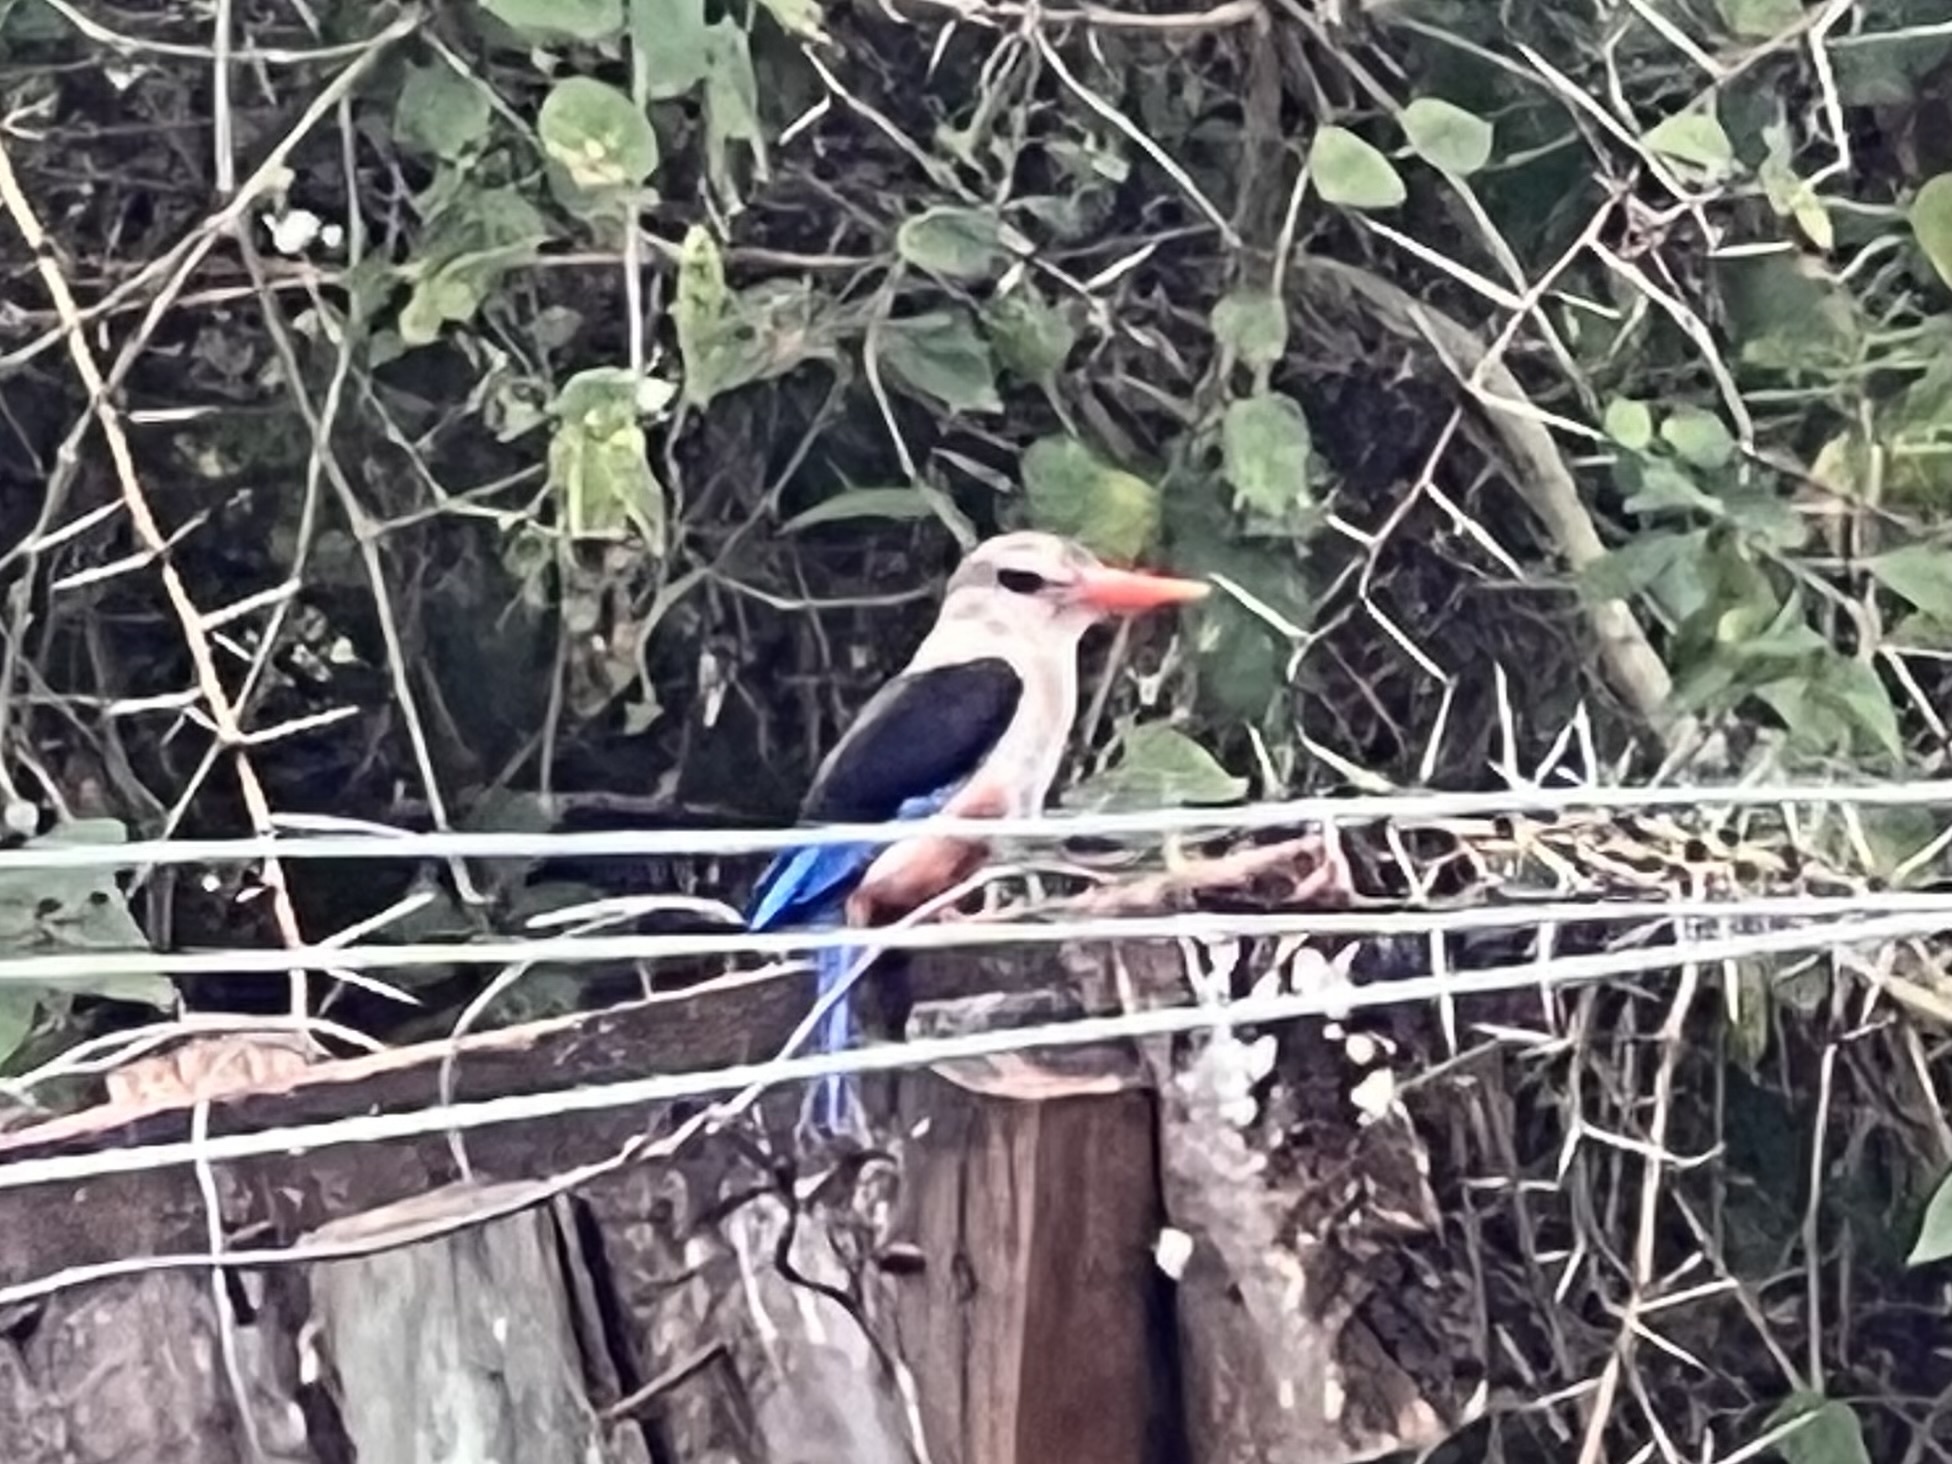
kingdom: Animalia
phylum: Chordata
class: Aves
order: Coraciiformes
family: Alcedinidae
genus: Halcyon
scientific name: Halcyon leucocephala
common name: Grey-headed kingfisher
